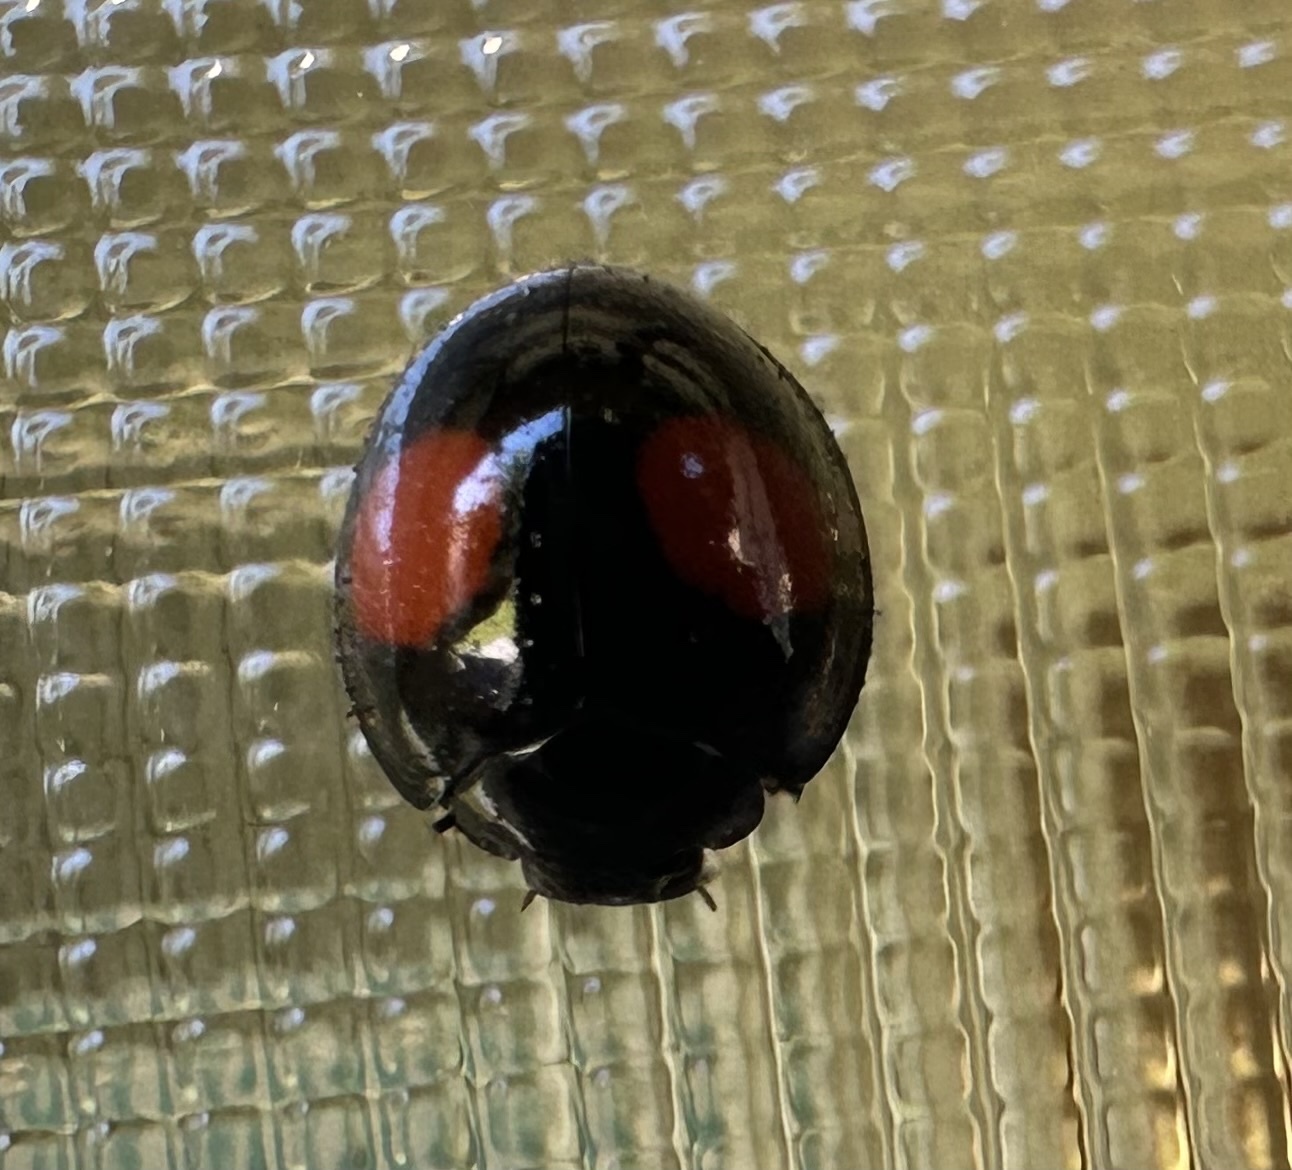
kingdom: Animalia
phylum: Arthropoda
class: Insecta
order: Coleoptera
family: Coccinellidae
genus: Chilocorus
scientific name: Chilocorus cacti
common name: Cactus lady beetle
